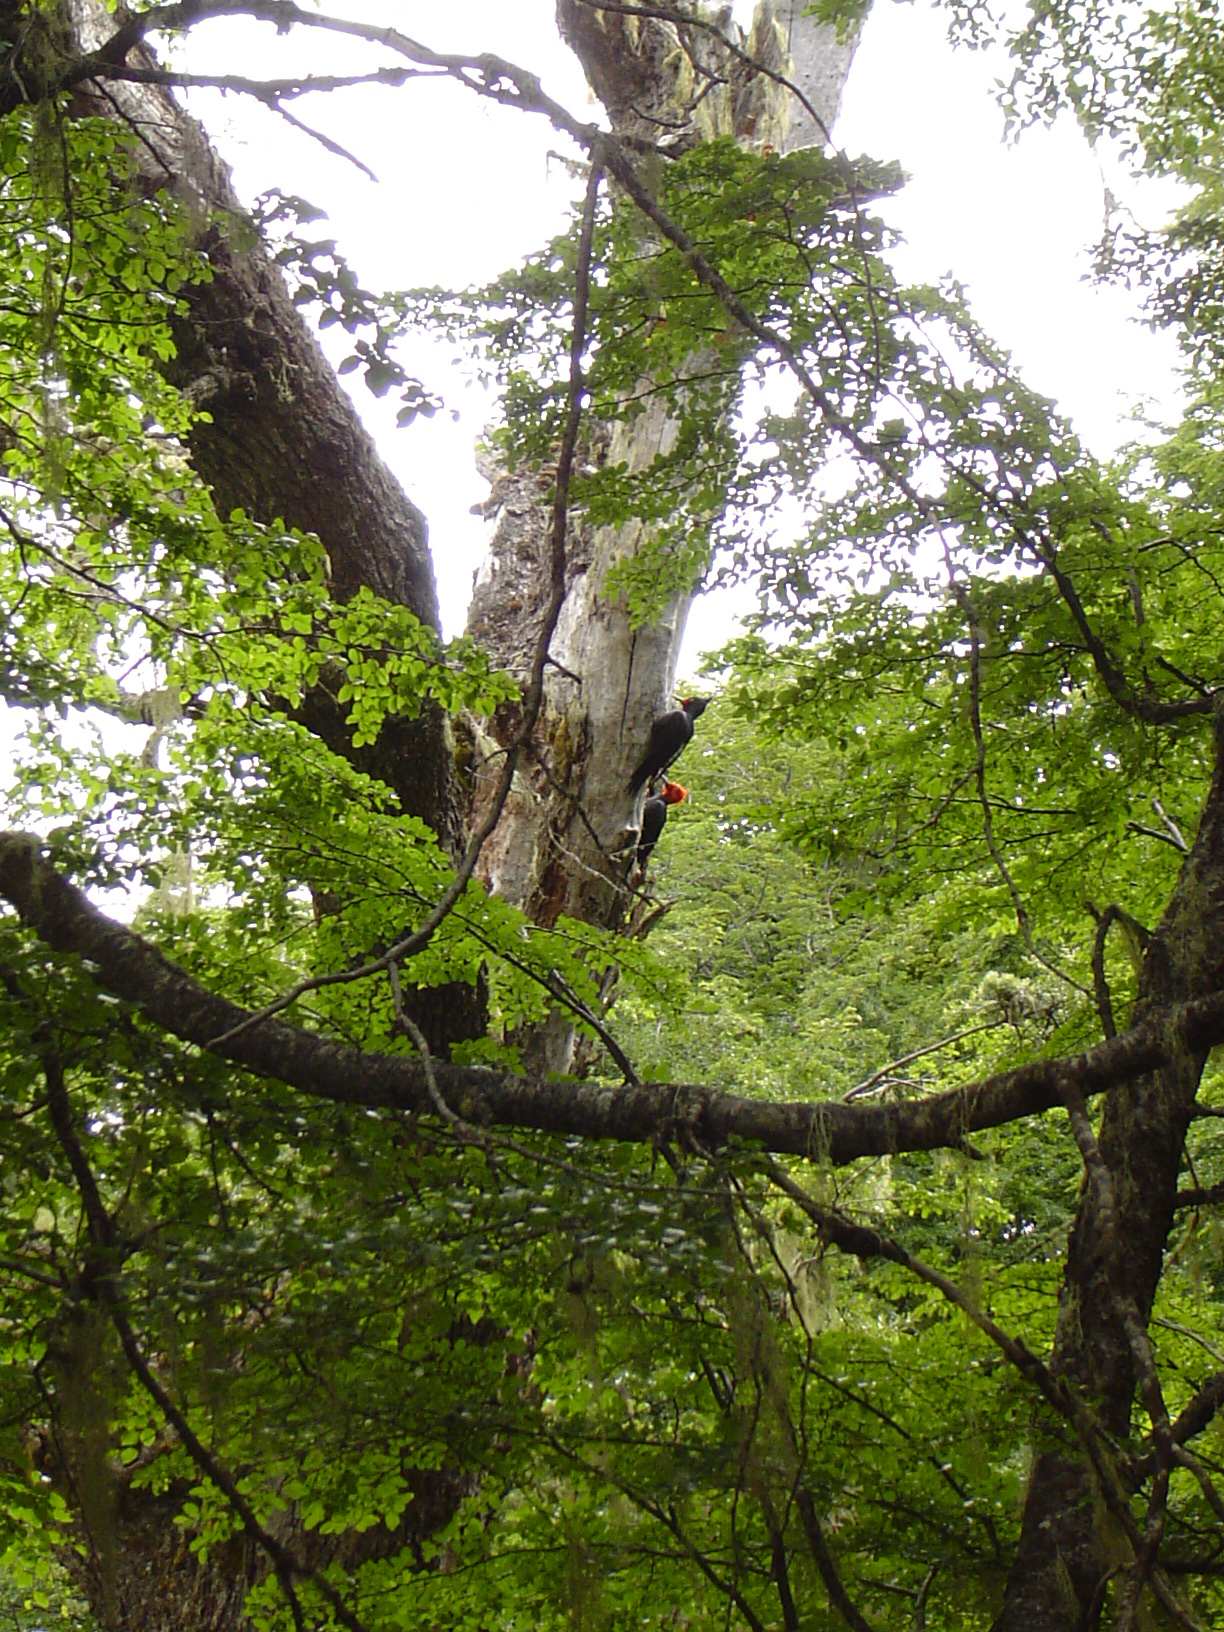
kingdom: Animalia
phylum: Chordata
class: Aves
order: Piciformes
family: Picidae
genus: Campephilus
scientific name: Campephilus magellanicus
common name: Magellanic woodpecker
